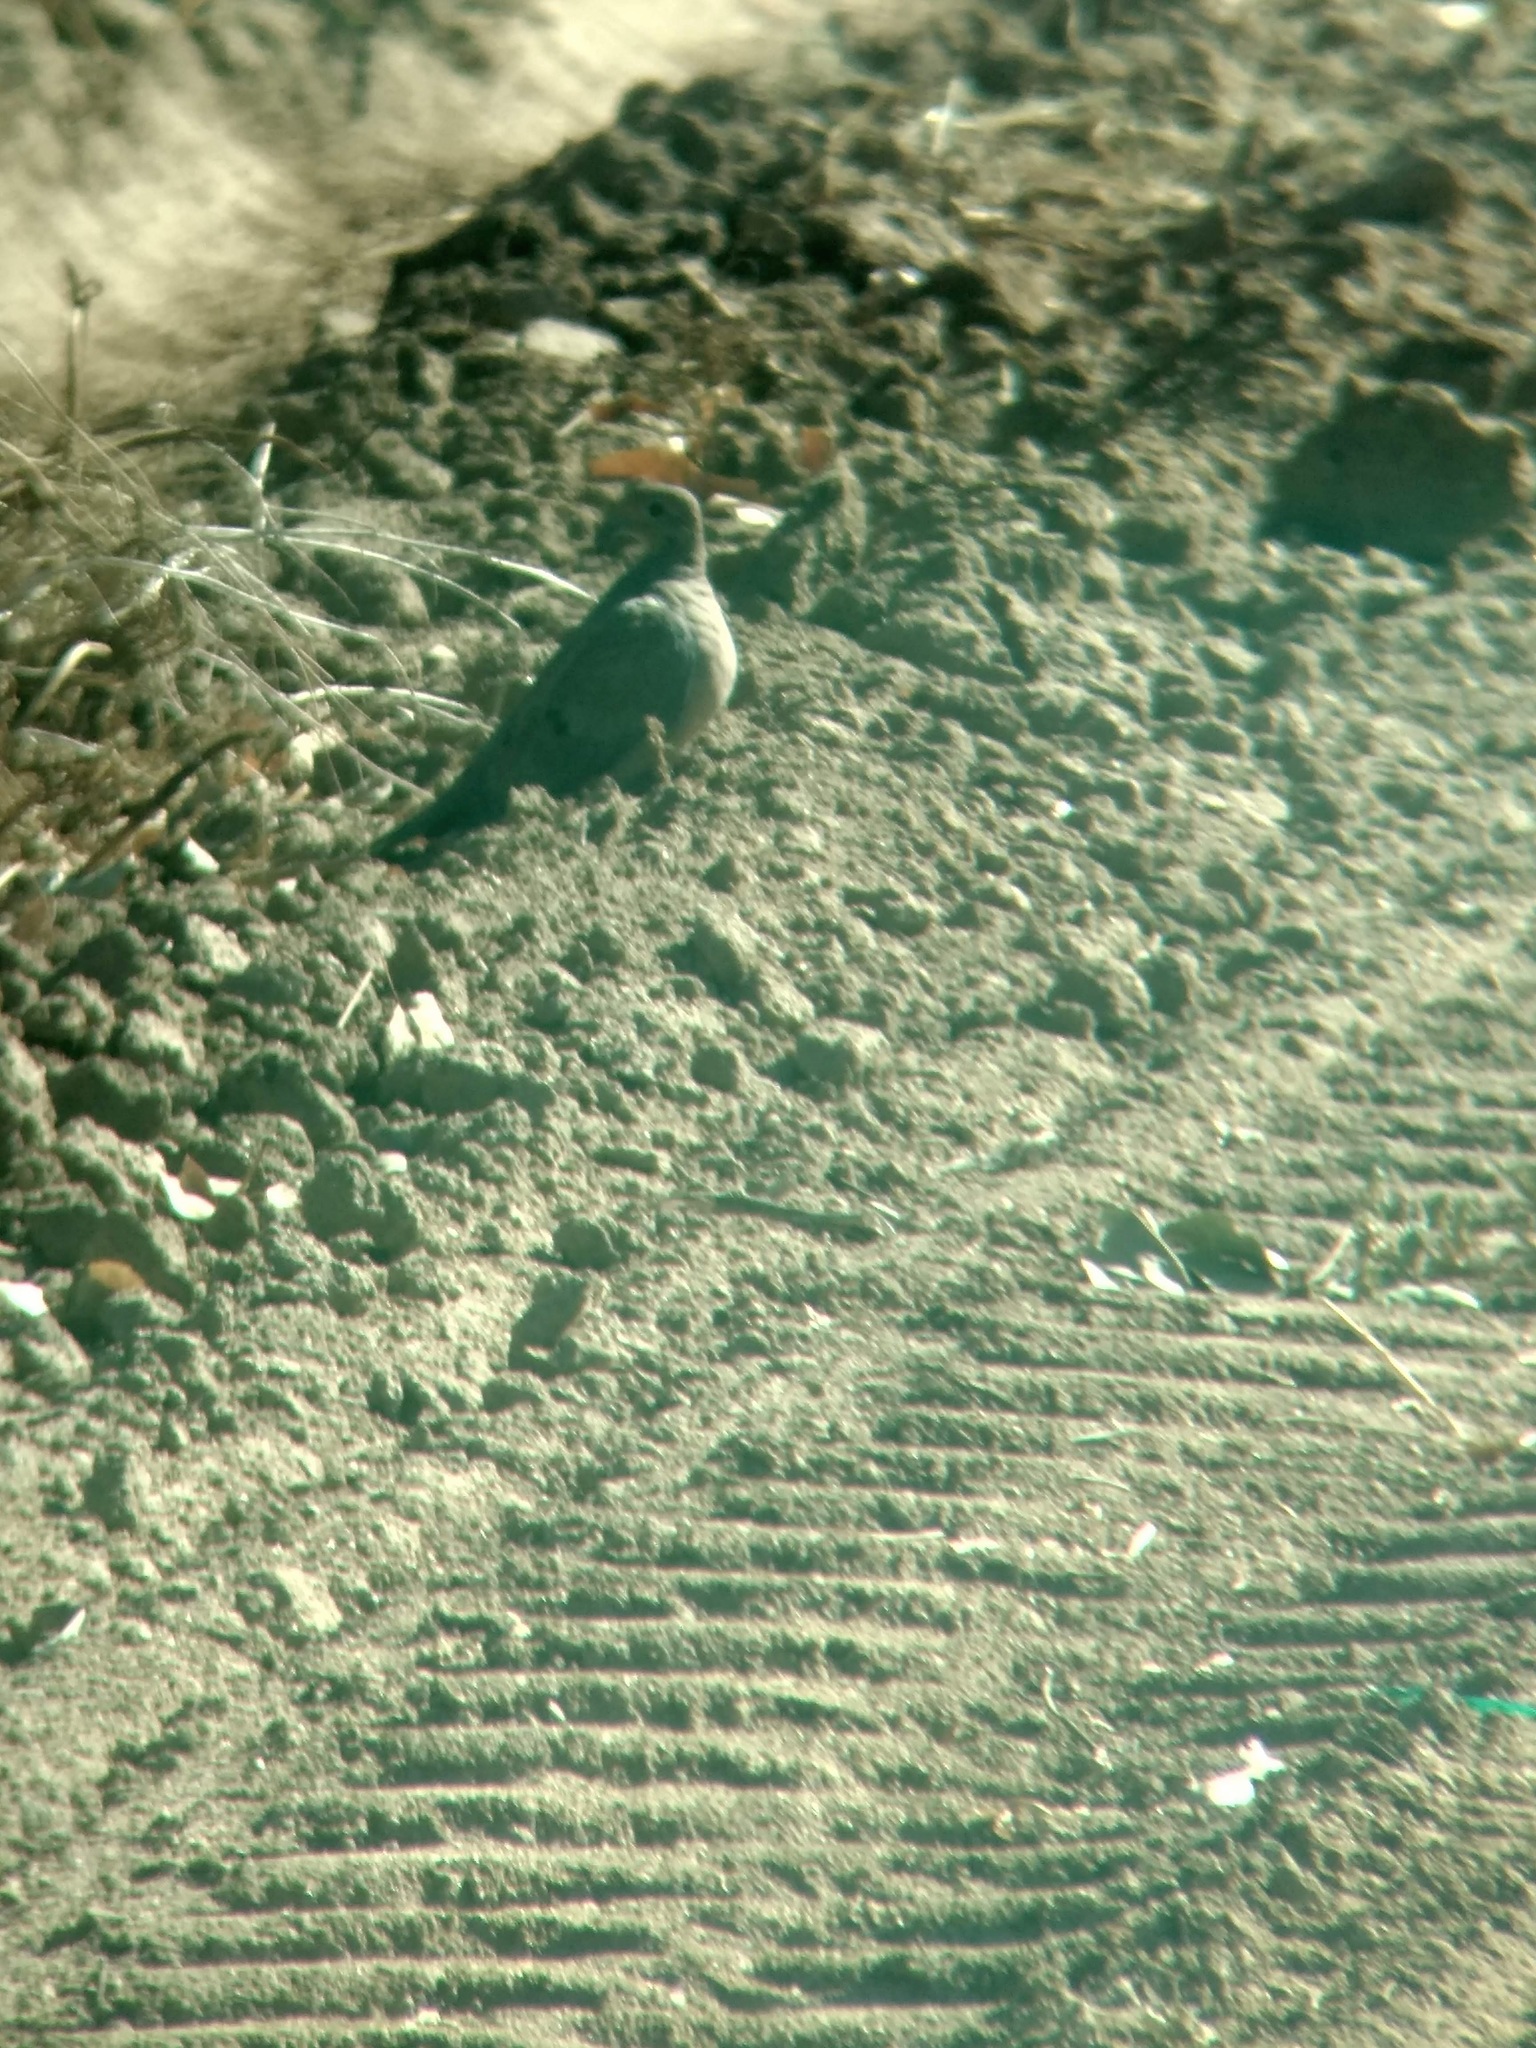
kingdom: Animalia
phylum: Chordata
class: Aves
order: Columbiformes
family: Columbidae
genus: Zenaida
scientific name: Zenaida macroura
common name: Mourning dove
